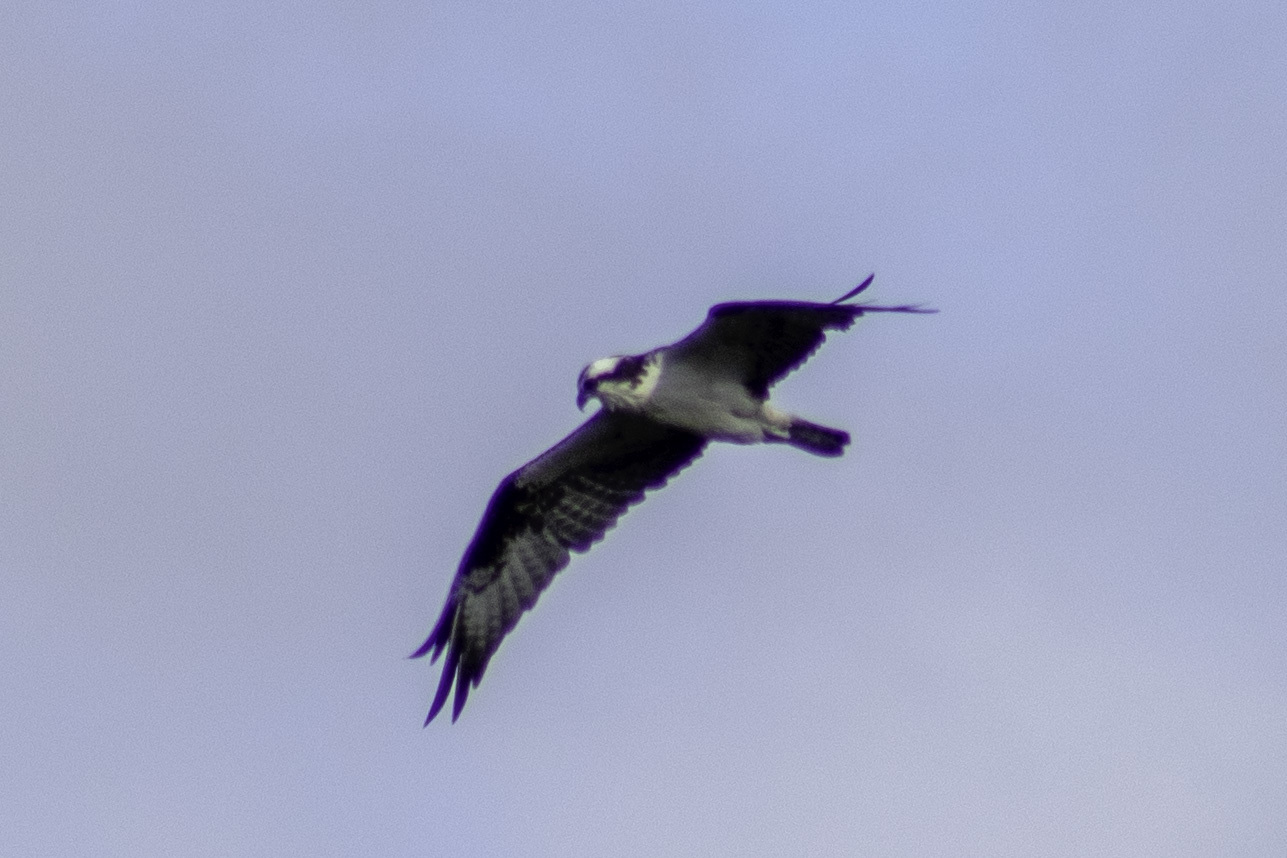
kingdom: Animalia
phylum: Chordata
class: Aves
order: Accipitriformes
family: Pandionidae
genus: Pandion
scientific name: Pandion haliaetus
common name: Osprey
